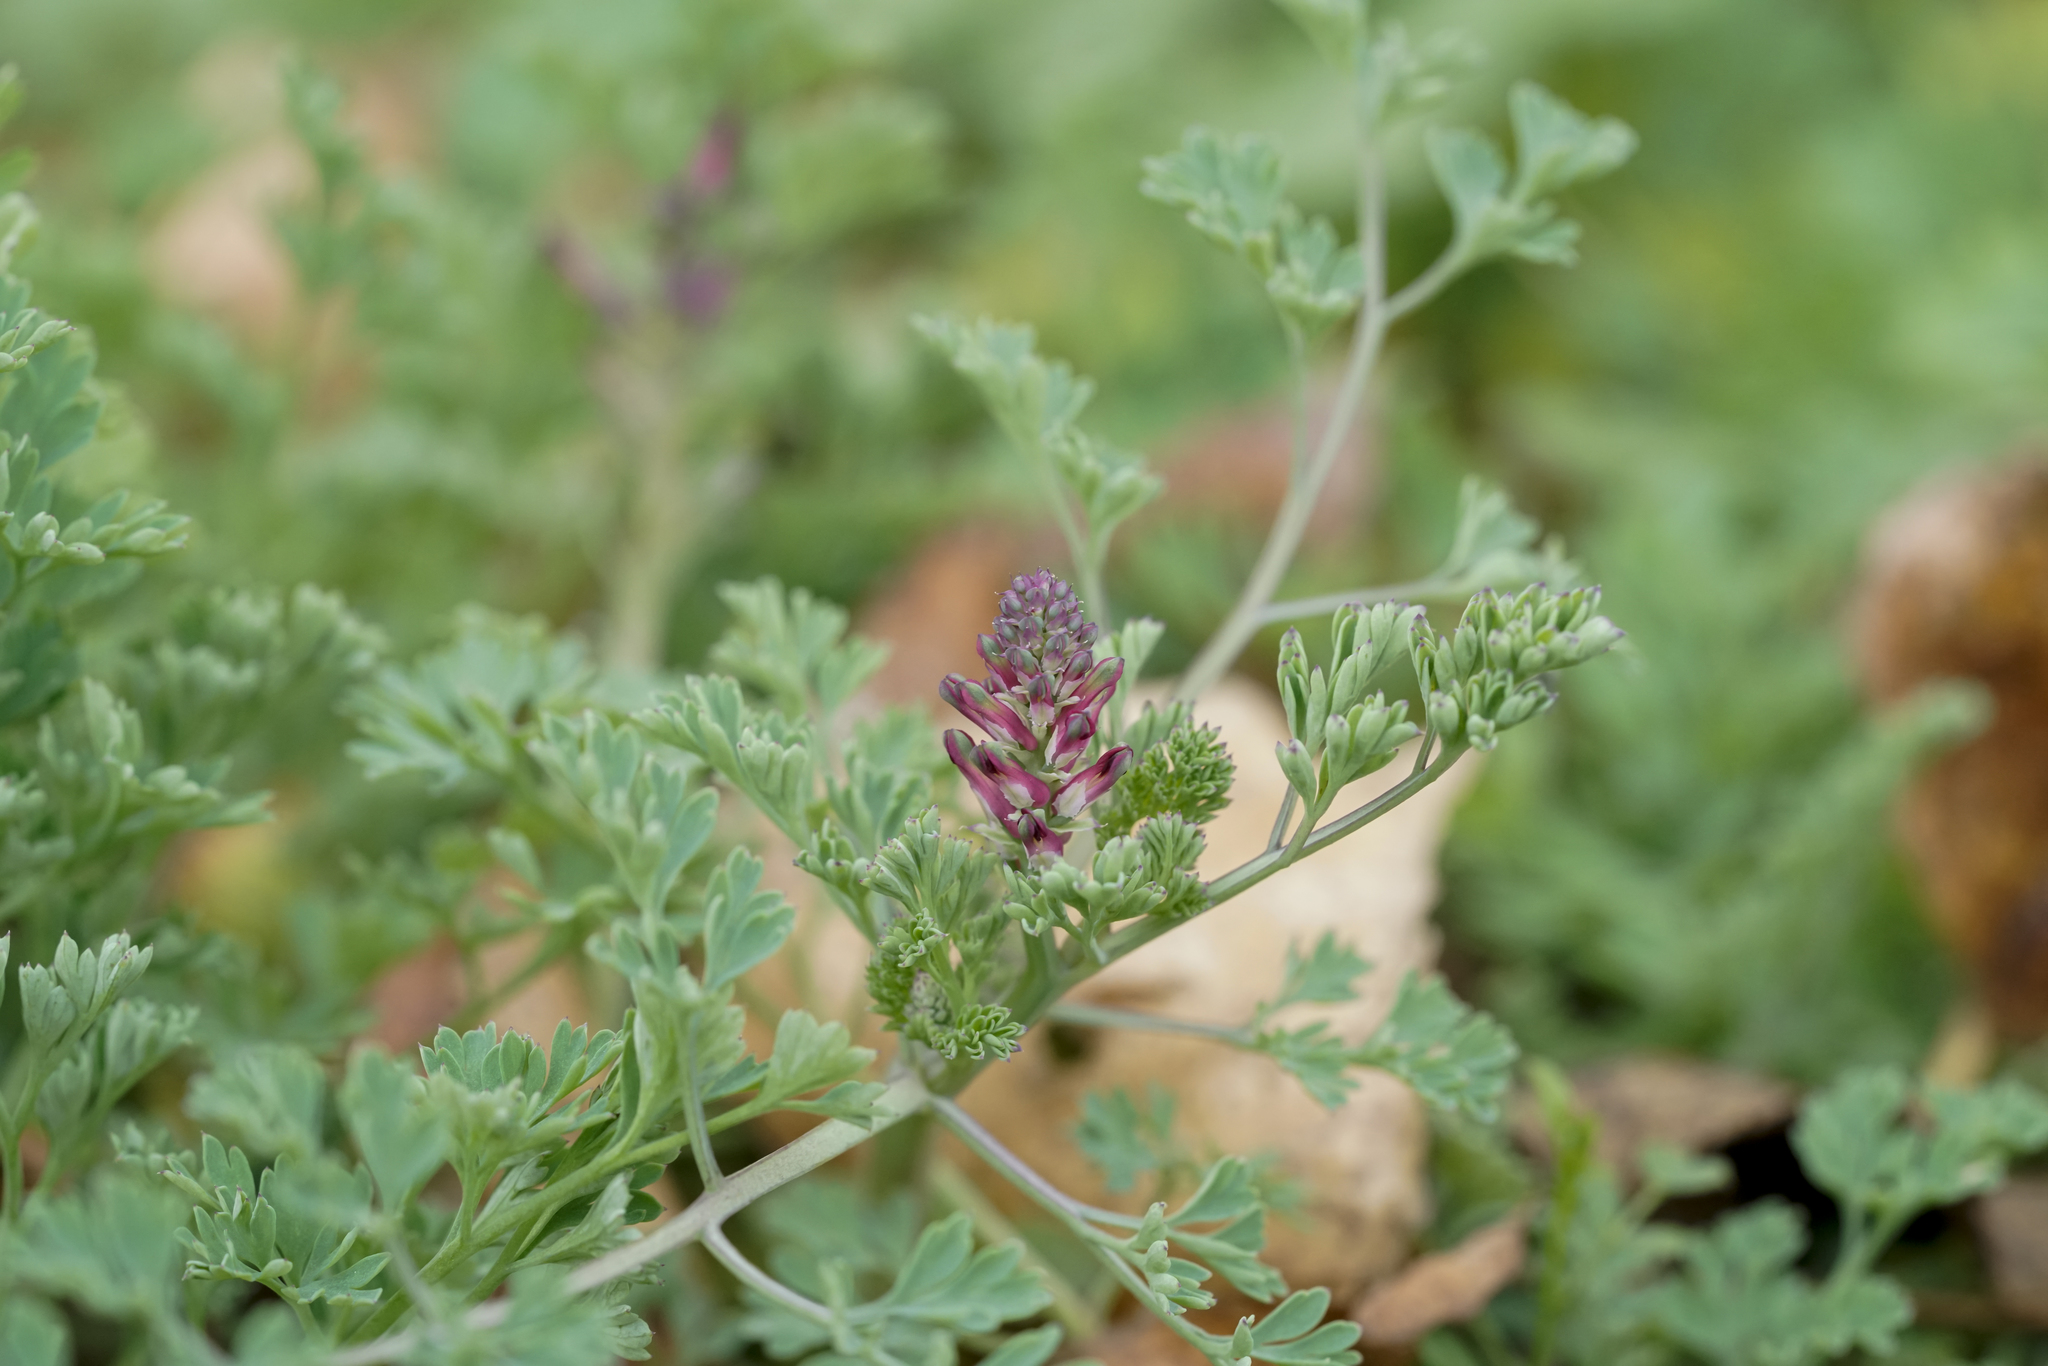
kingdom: Plantae
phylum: Tracheophyta
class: Magnoliopsida
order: Ranunculales
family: Papaveraceae
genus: Fumaria
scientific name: Fumaria officinalis
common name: Common fumitory
